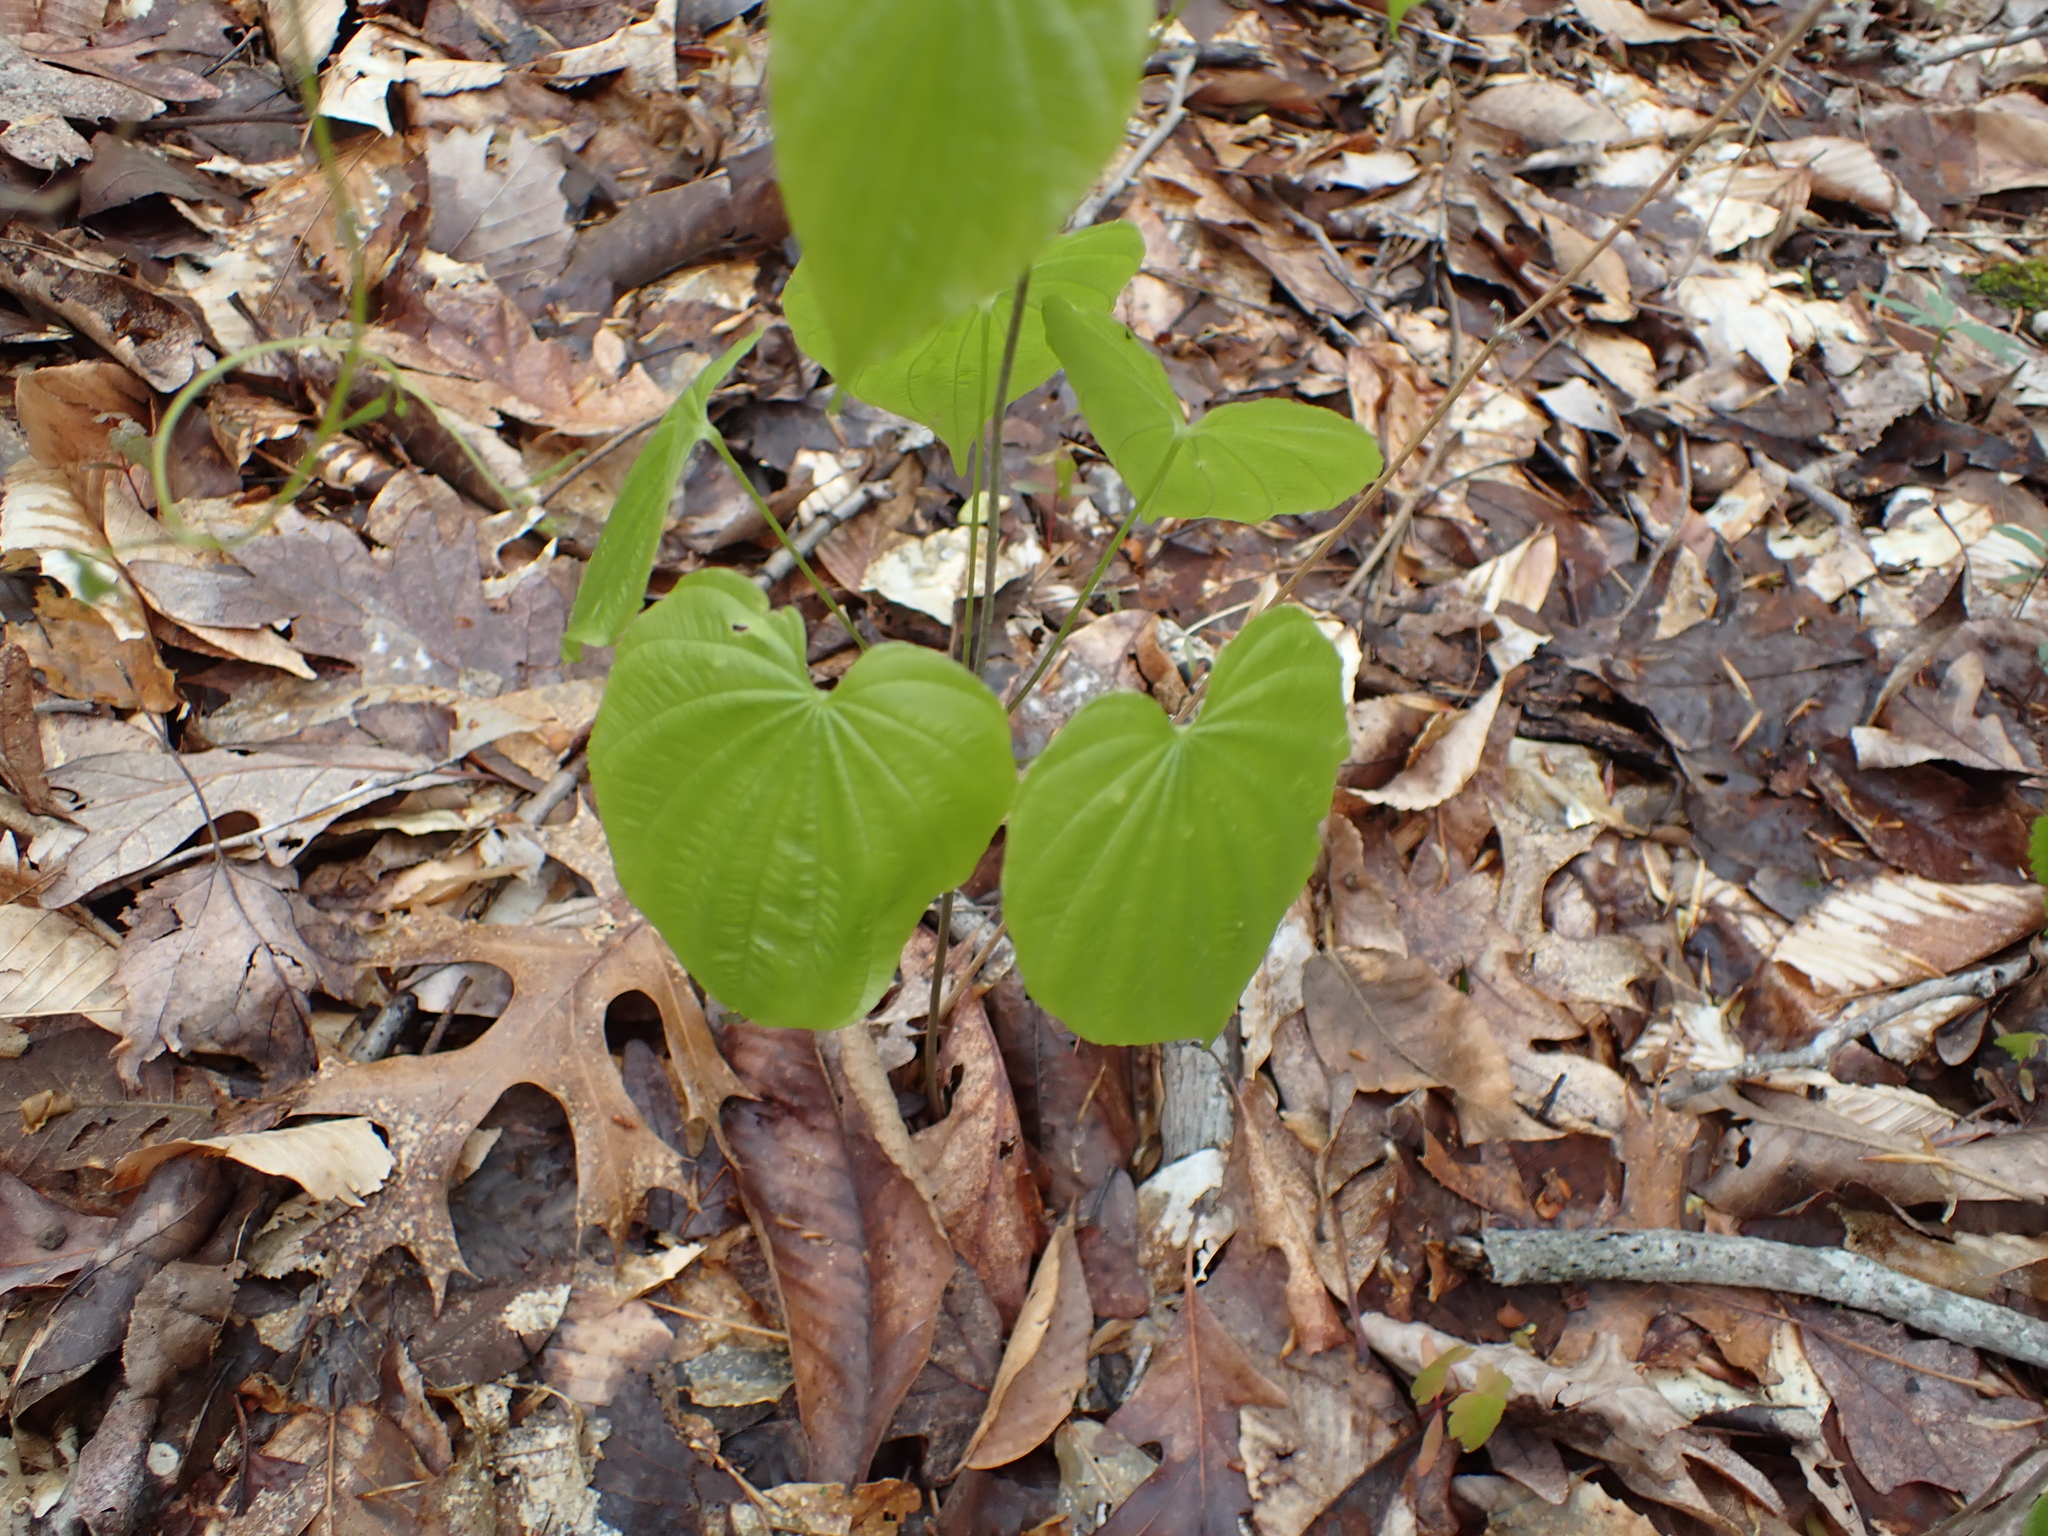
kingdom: Plantae
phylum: Tracheophyta
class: Liliopsida
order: Dioscoreales
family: Dioscoreaceae
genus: Dioscorea
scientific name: Dioscorea villosa
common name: Wild yam
